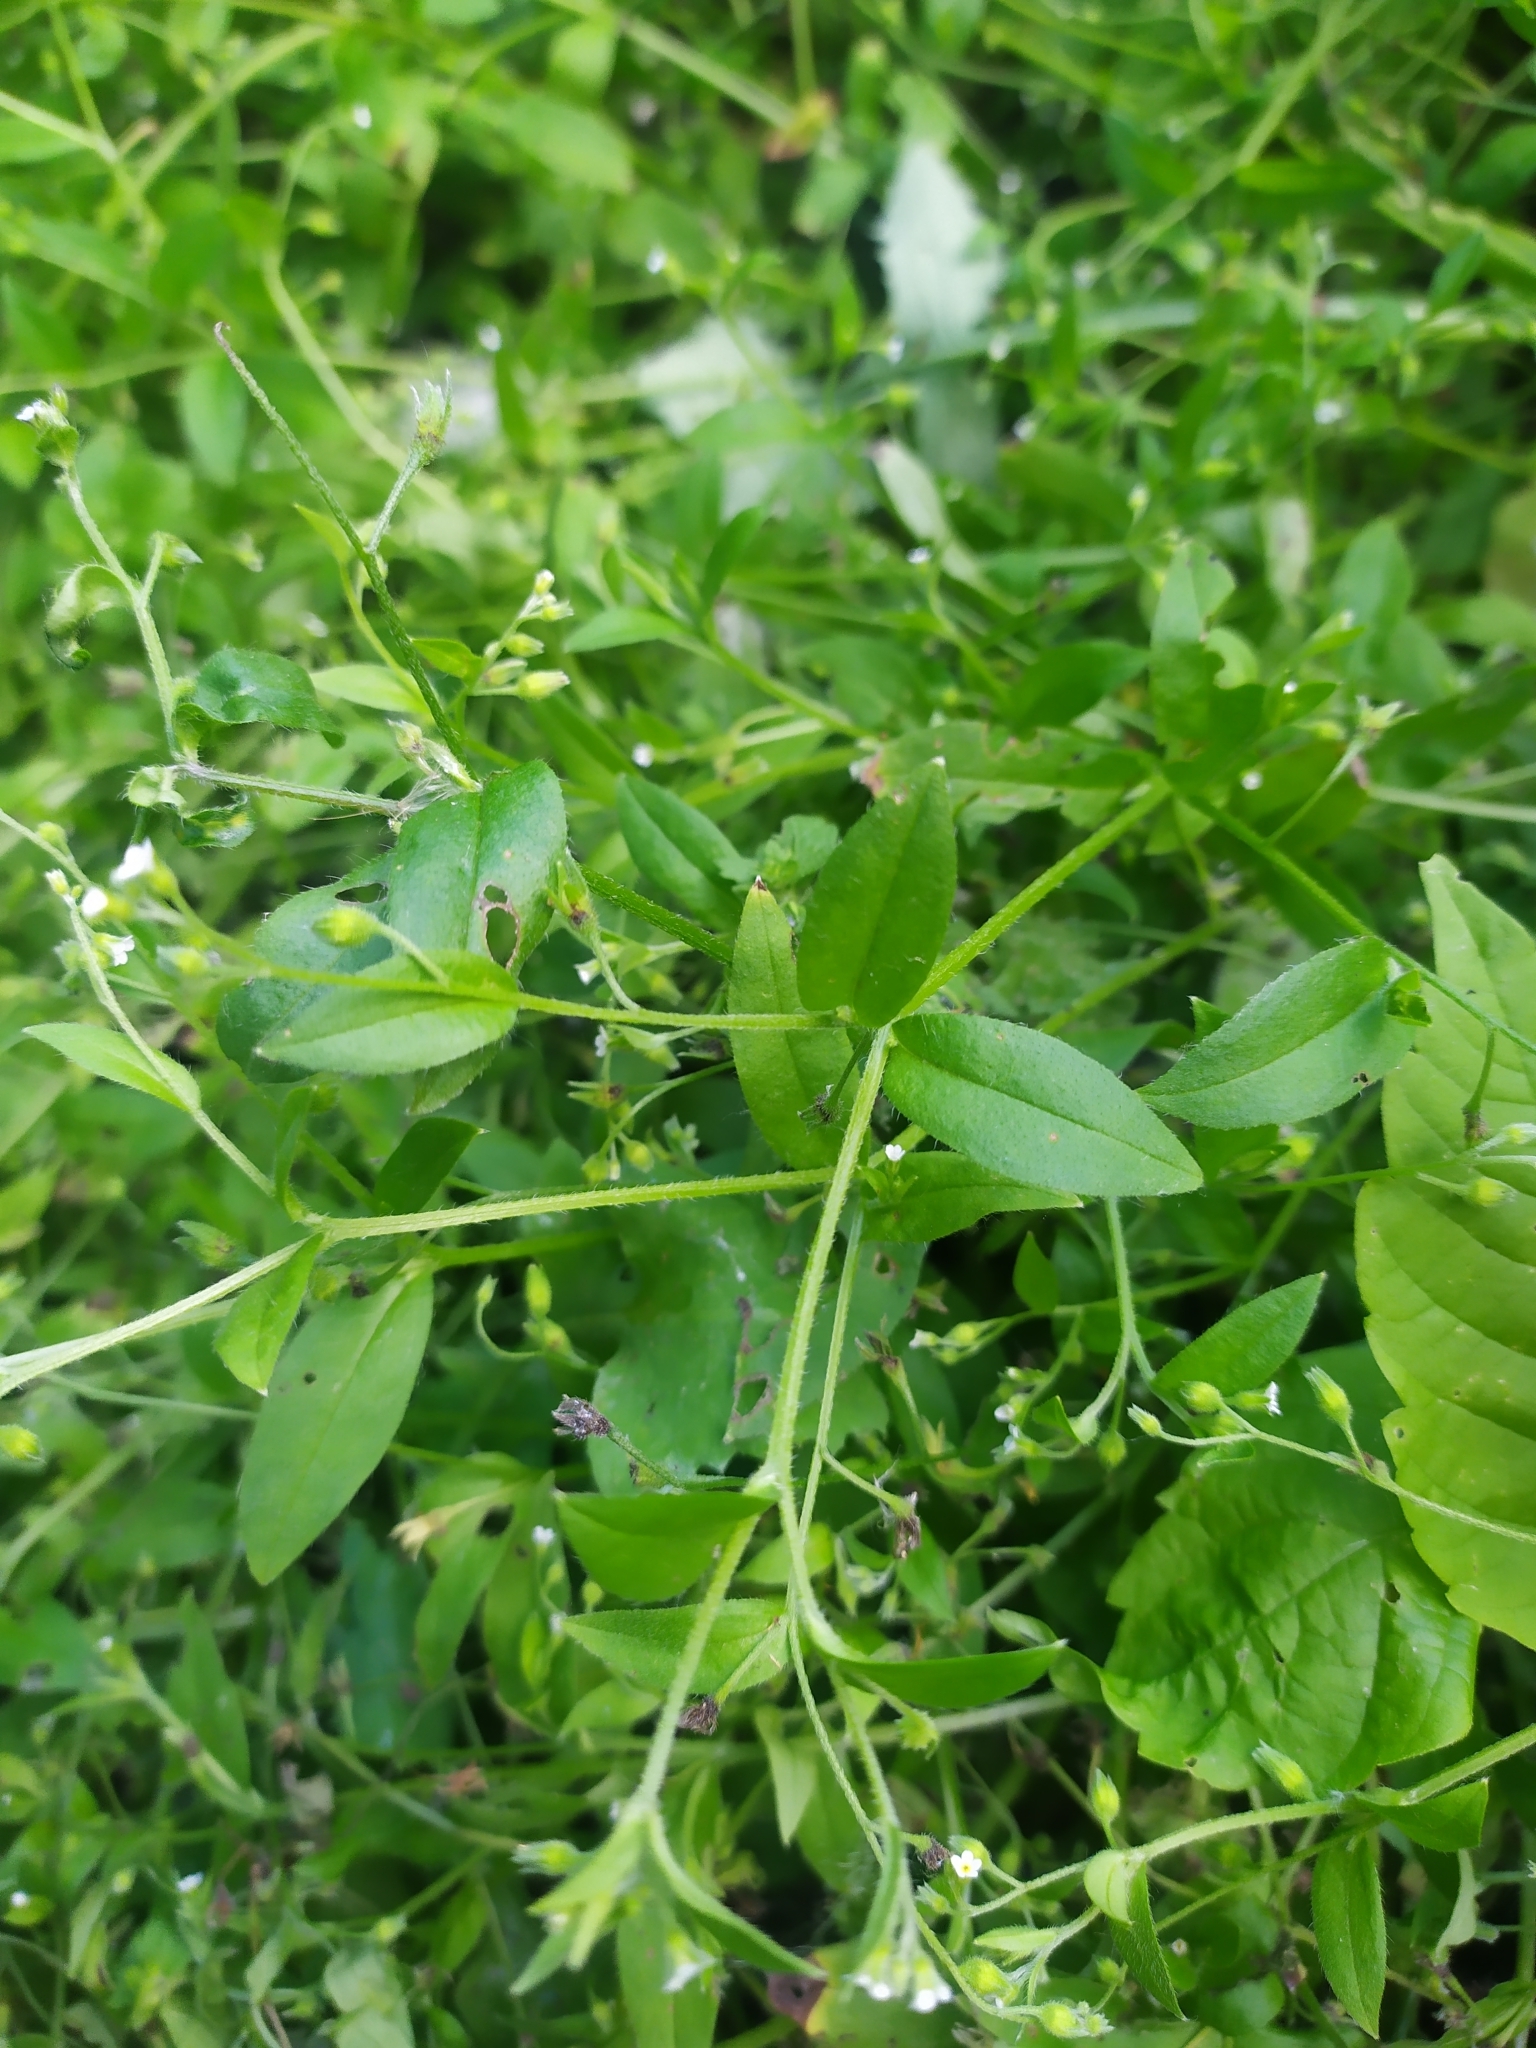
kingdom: Plantae
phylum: Tracheophyta
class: Magnoliopsida
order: Boraginales
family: Boraginaceae
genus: Myosotis
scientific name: Myosotis sparsiflora
